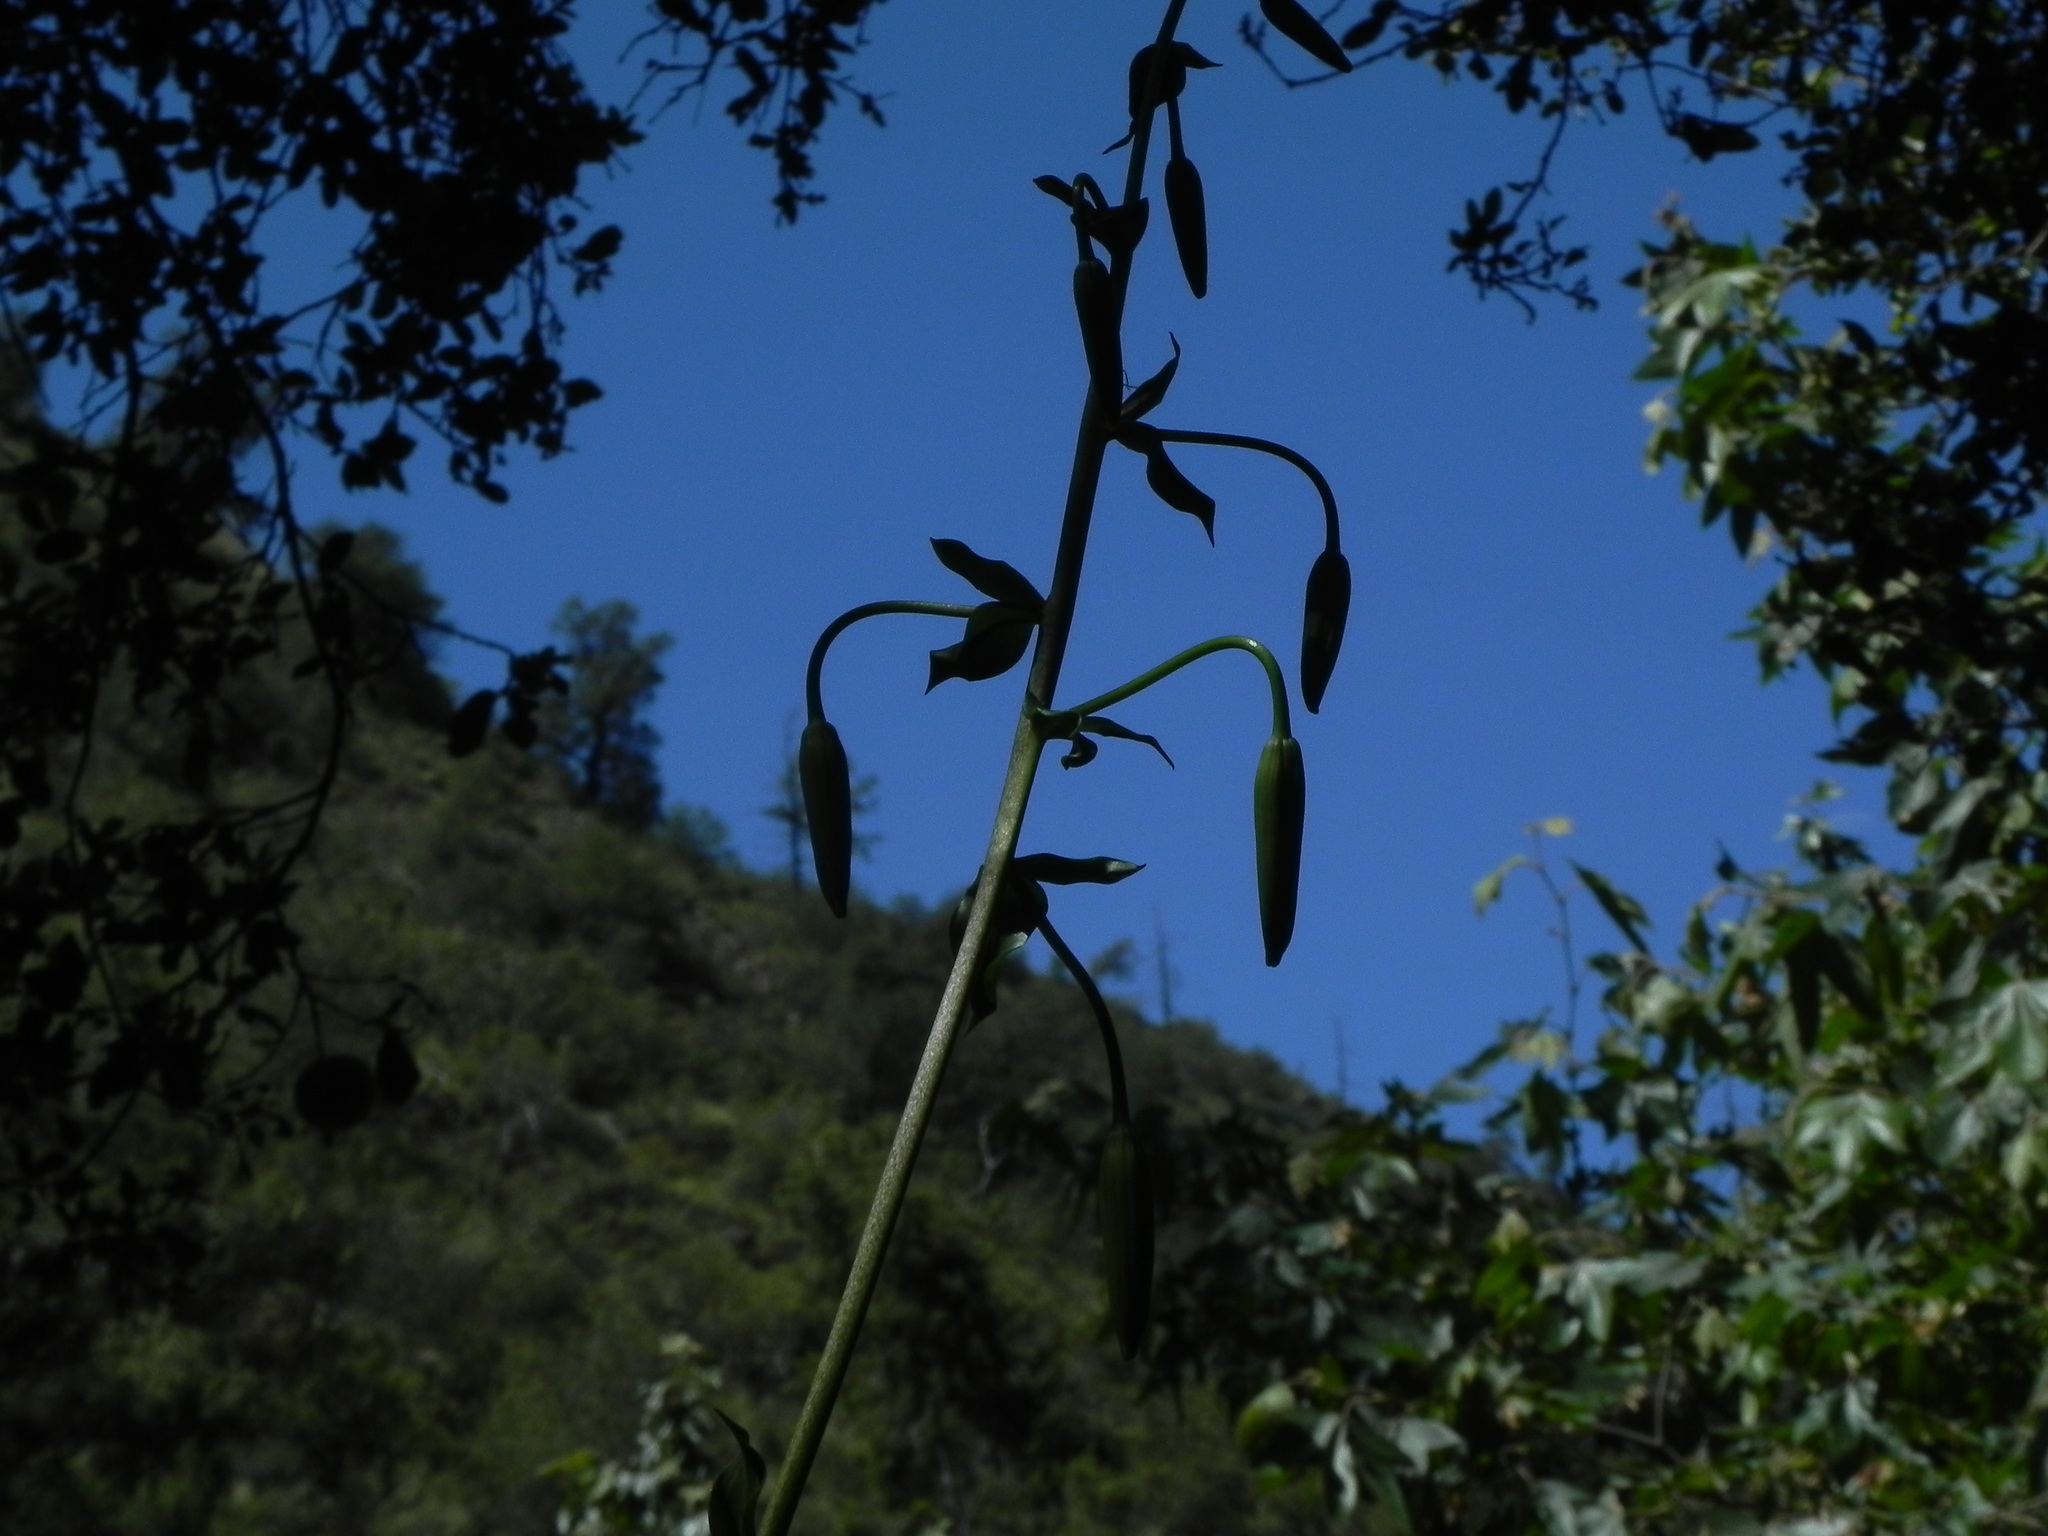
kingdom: Plantae
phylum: Tracheophyta
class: Liliopsida
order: Liliales
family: Liliaceae
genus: Lilium
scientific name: Lilium humboldtii
